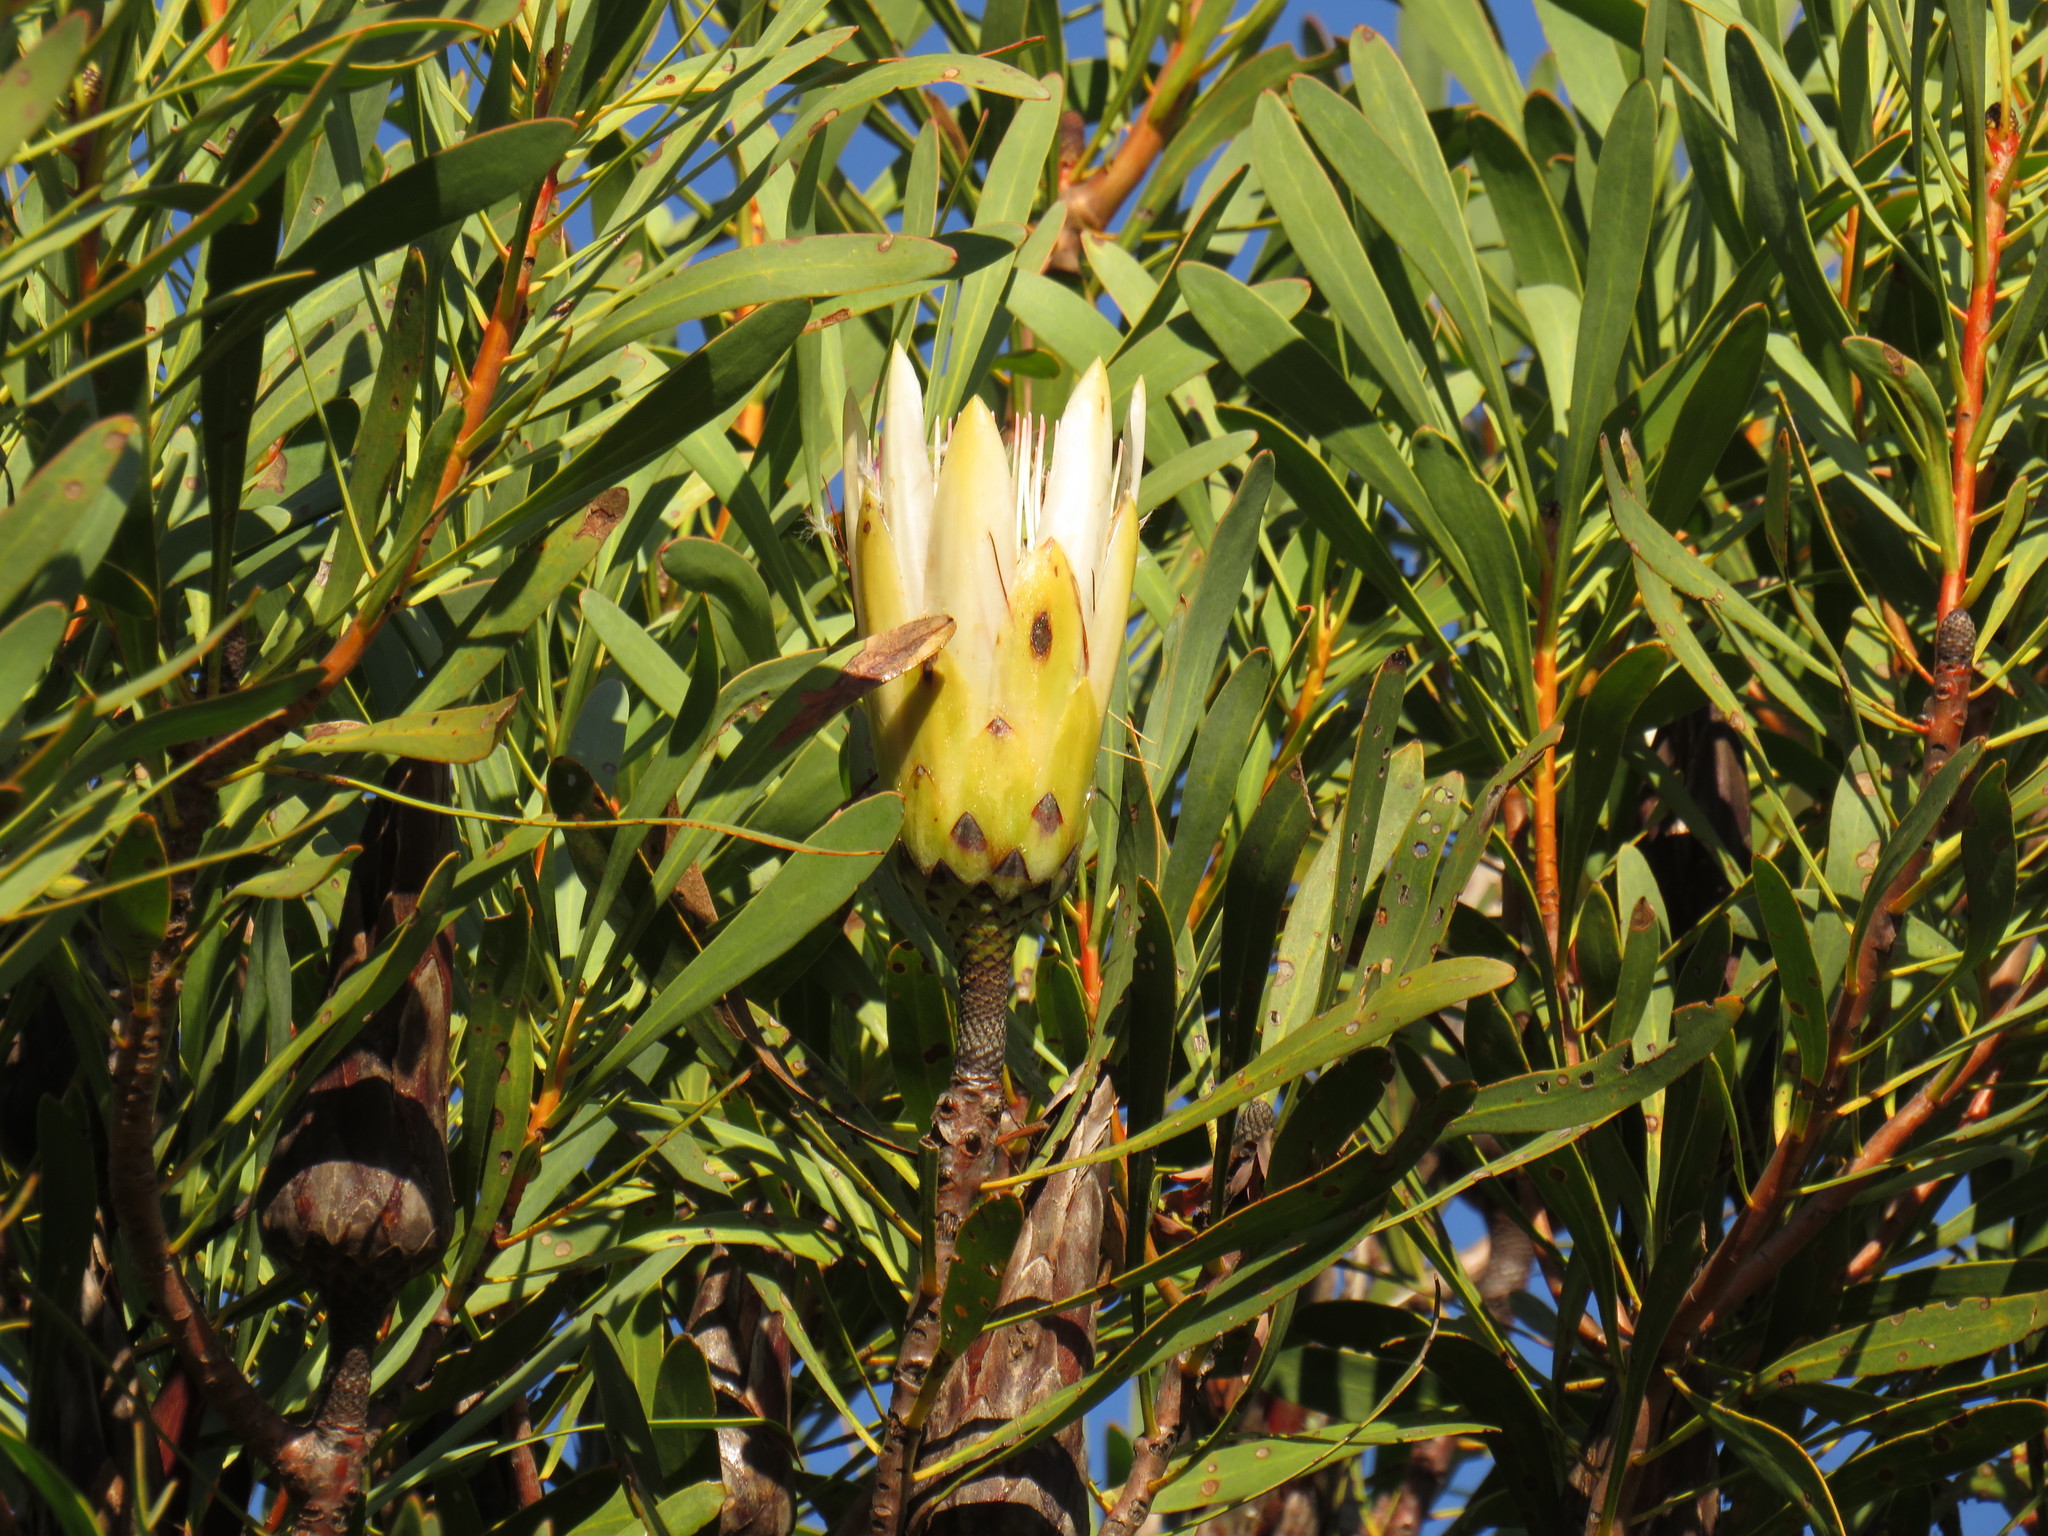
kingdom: Plantae
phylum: Tracheophyta
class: Magnoliopsida
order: Proteales
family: Proteaceae
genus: Protea
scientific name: Protea repens
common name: Sugarbush
